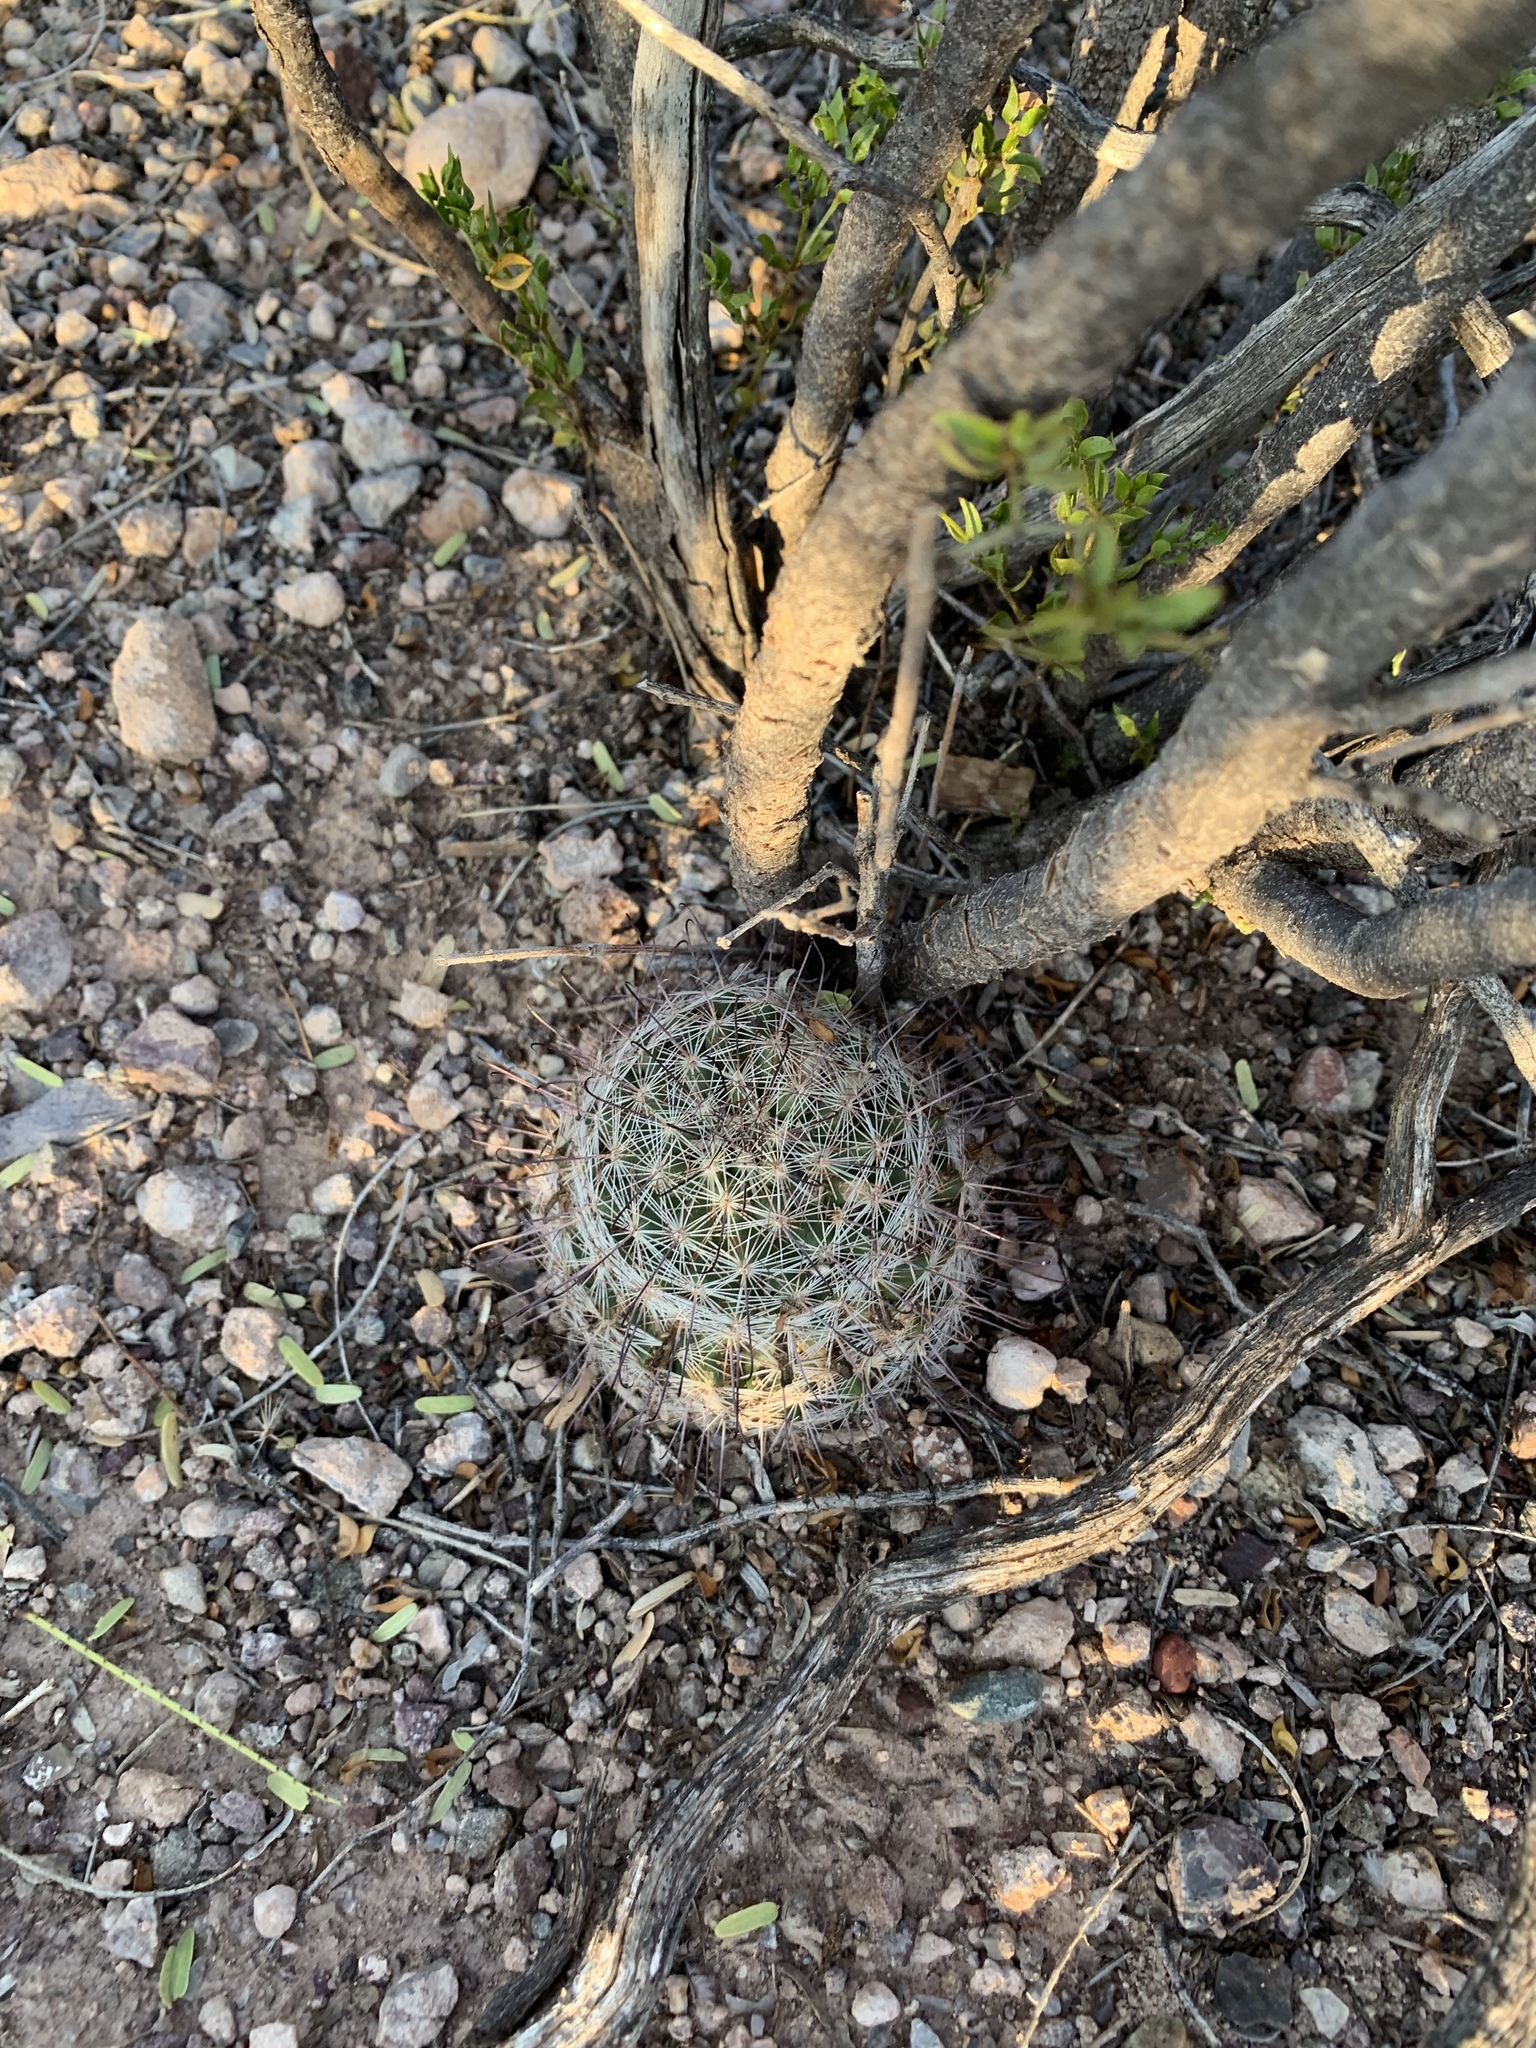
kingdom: Plantae
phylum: Tracheophyta
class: Magnoliopsida
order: Caryophyllales
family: Cactaceae
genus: Cochemiea
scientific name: Cochemiea grahamii
